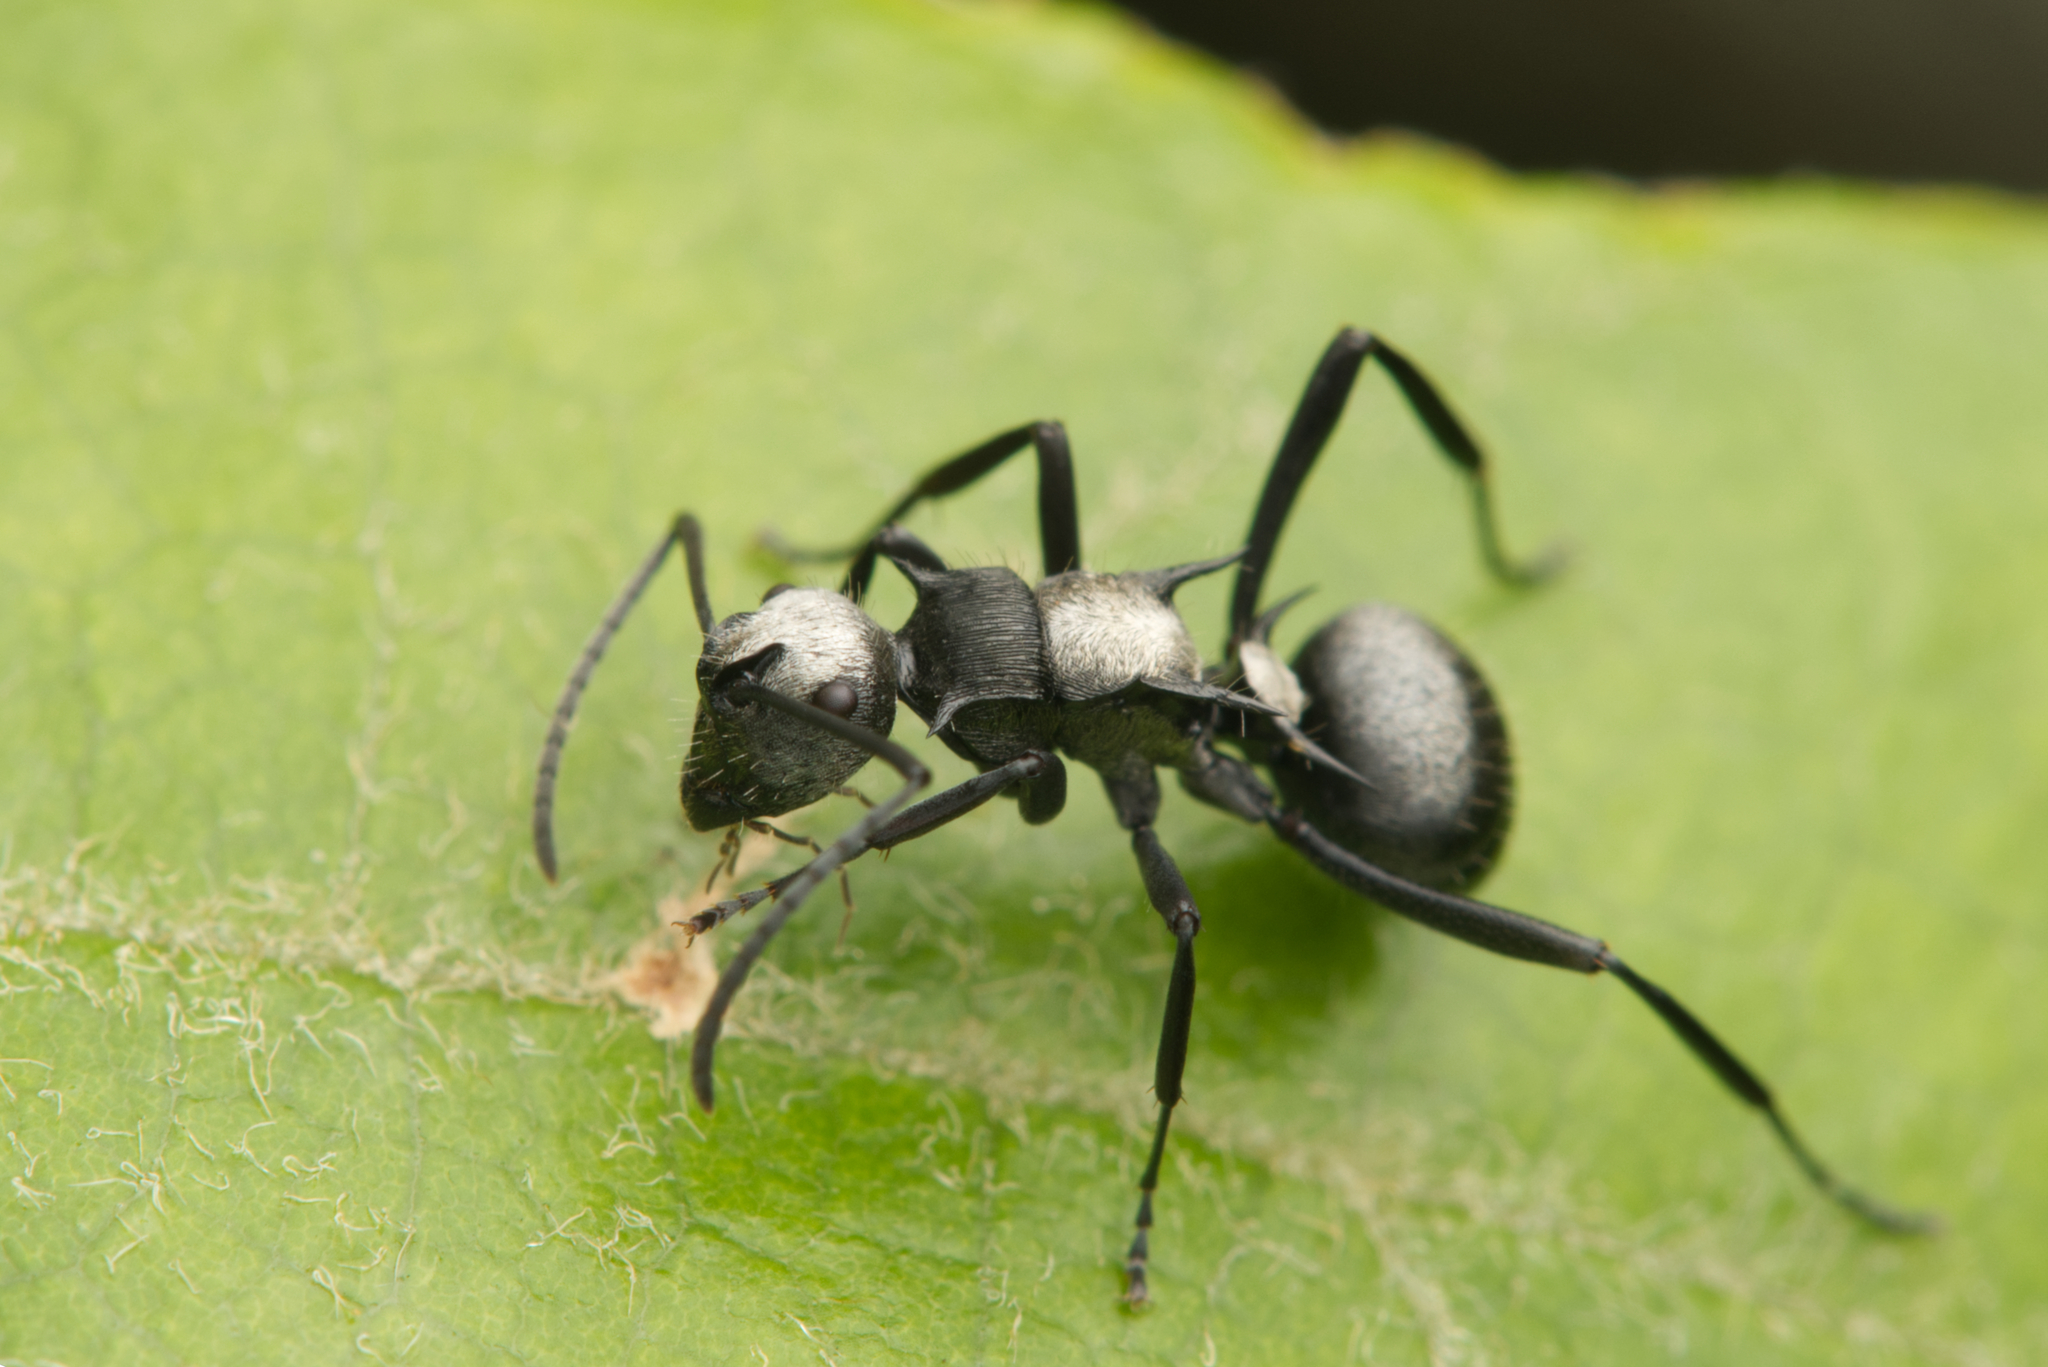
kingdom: Animalia
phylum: Arthropoda
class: Insecta
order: Hymenoptera
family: Formicidae
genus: Polyrhachis
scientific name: Polyrhachis daemeli
